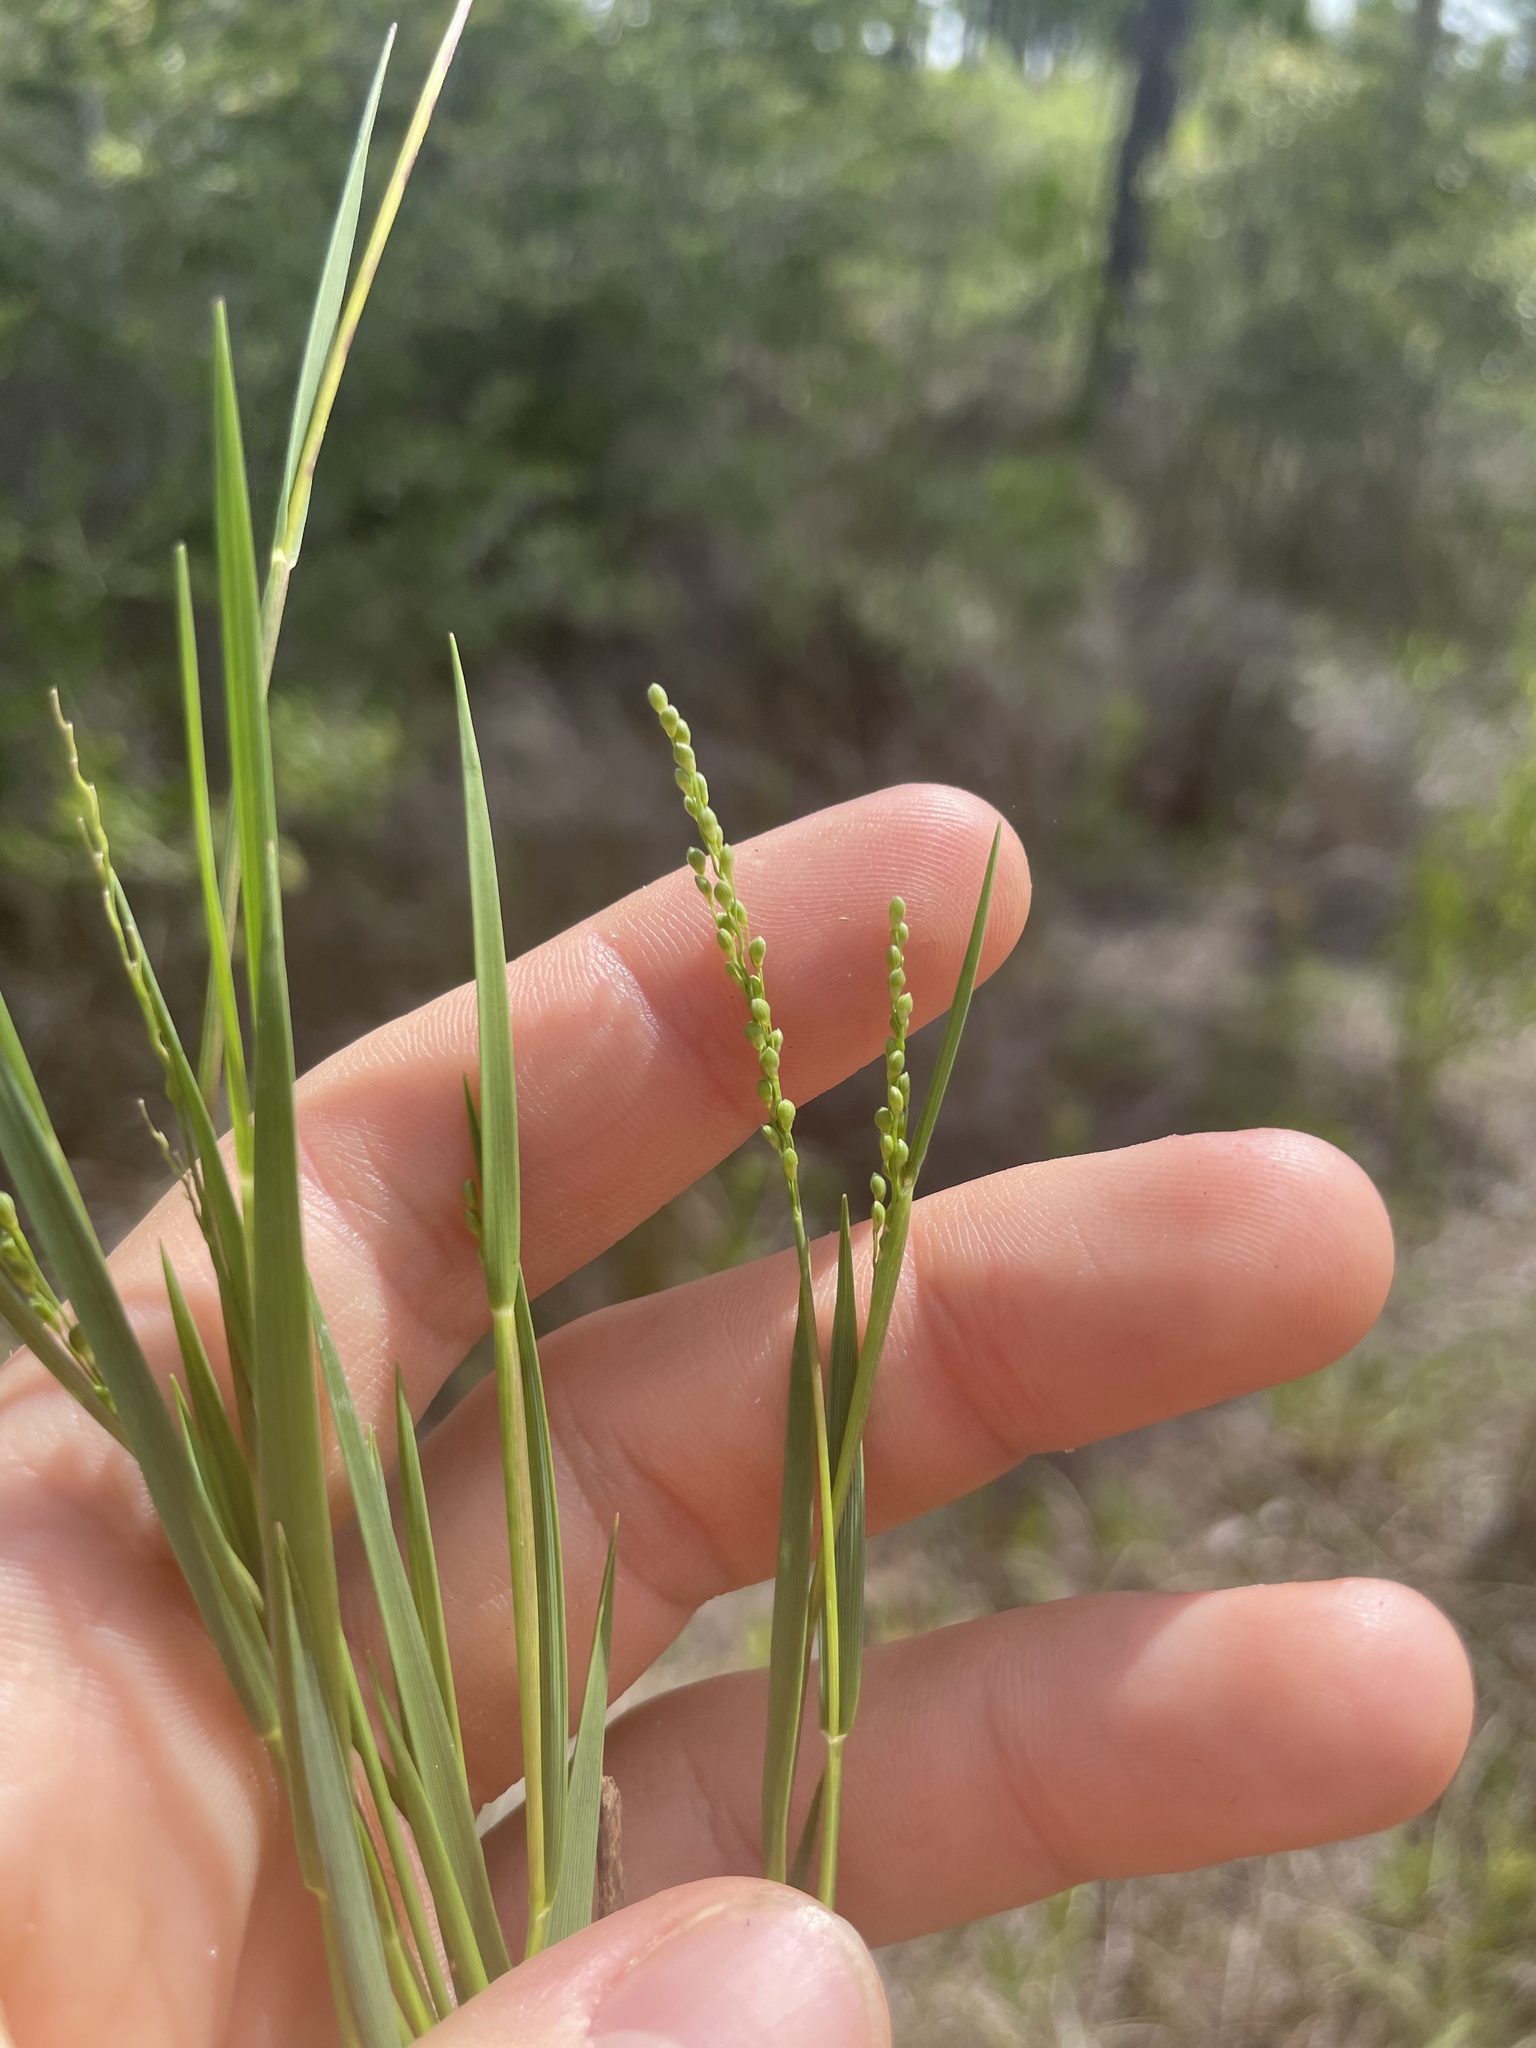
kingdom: Plantae
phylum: Tracheophyta
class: Liliopsida
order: Poales
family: Poaceae
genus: Dichanthelium
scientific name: Dichanthelium neuranthum
